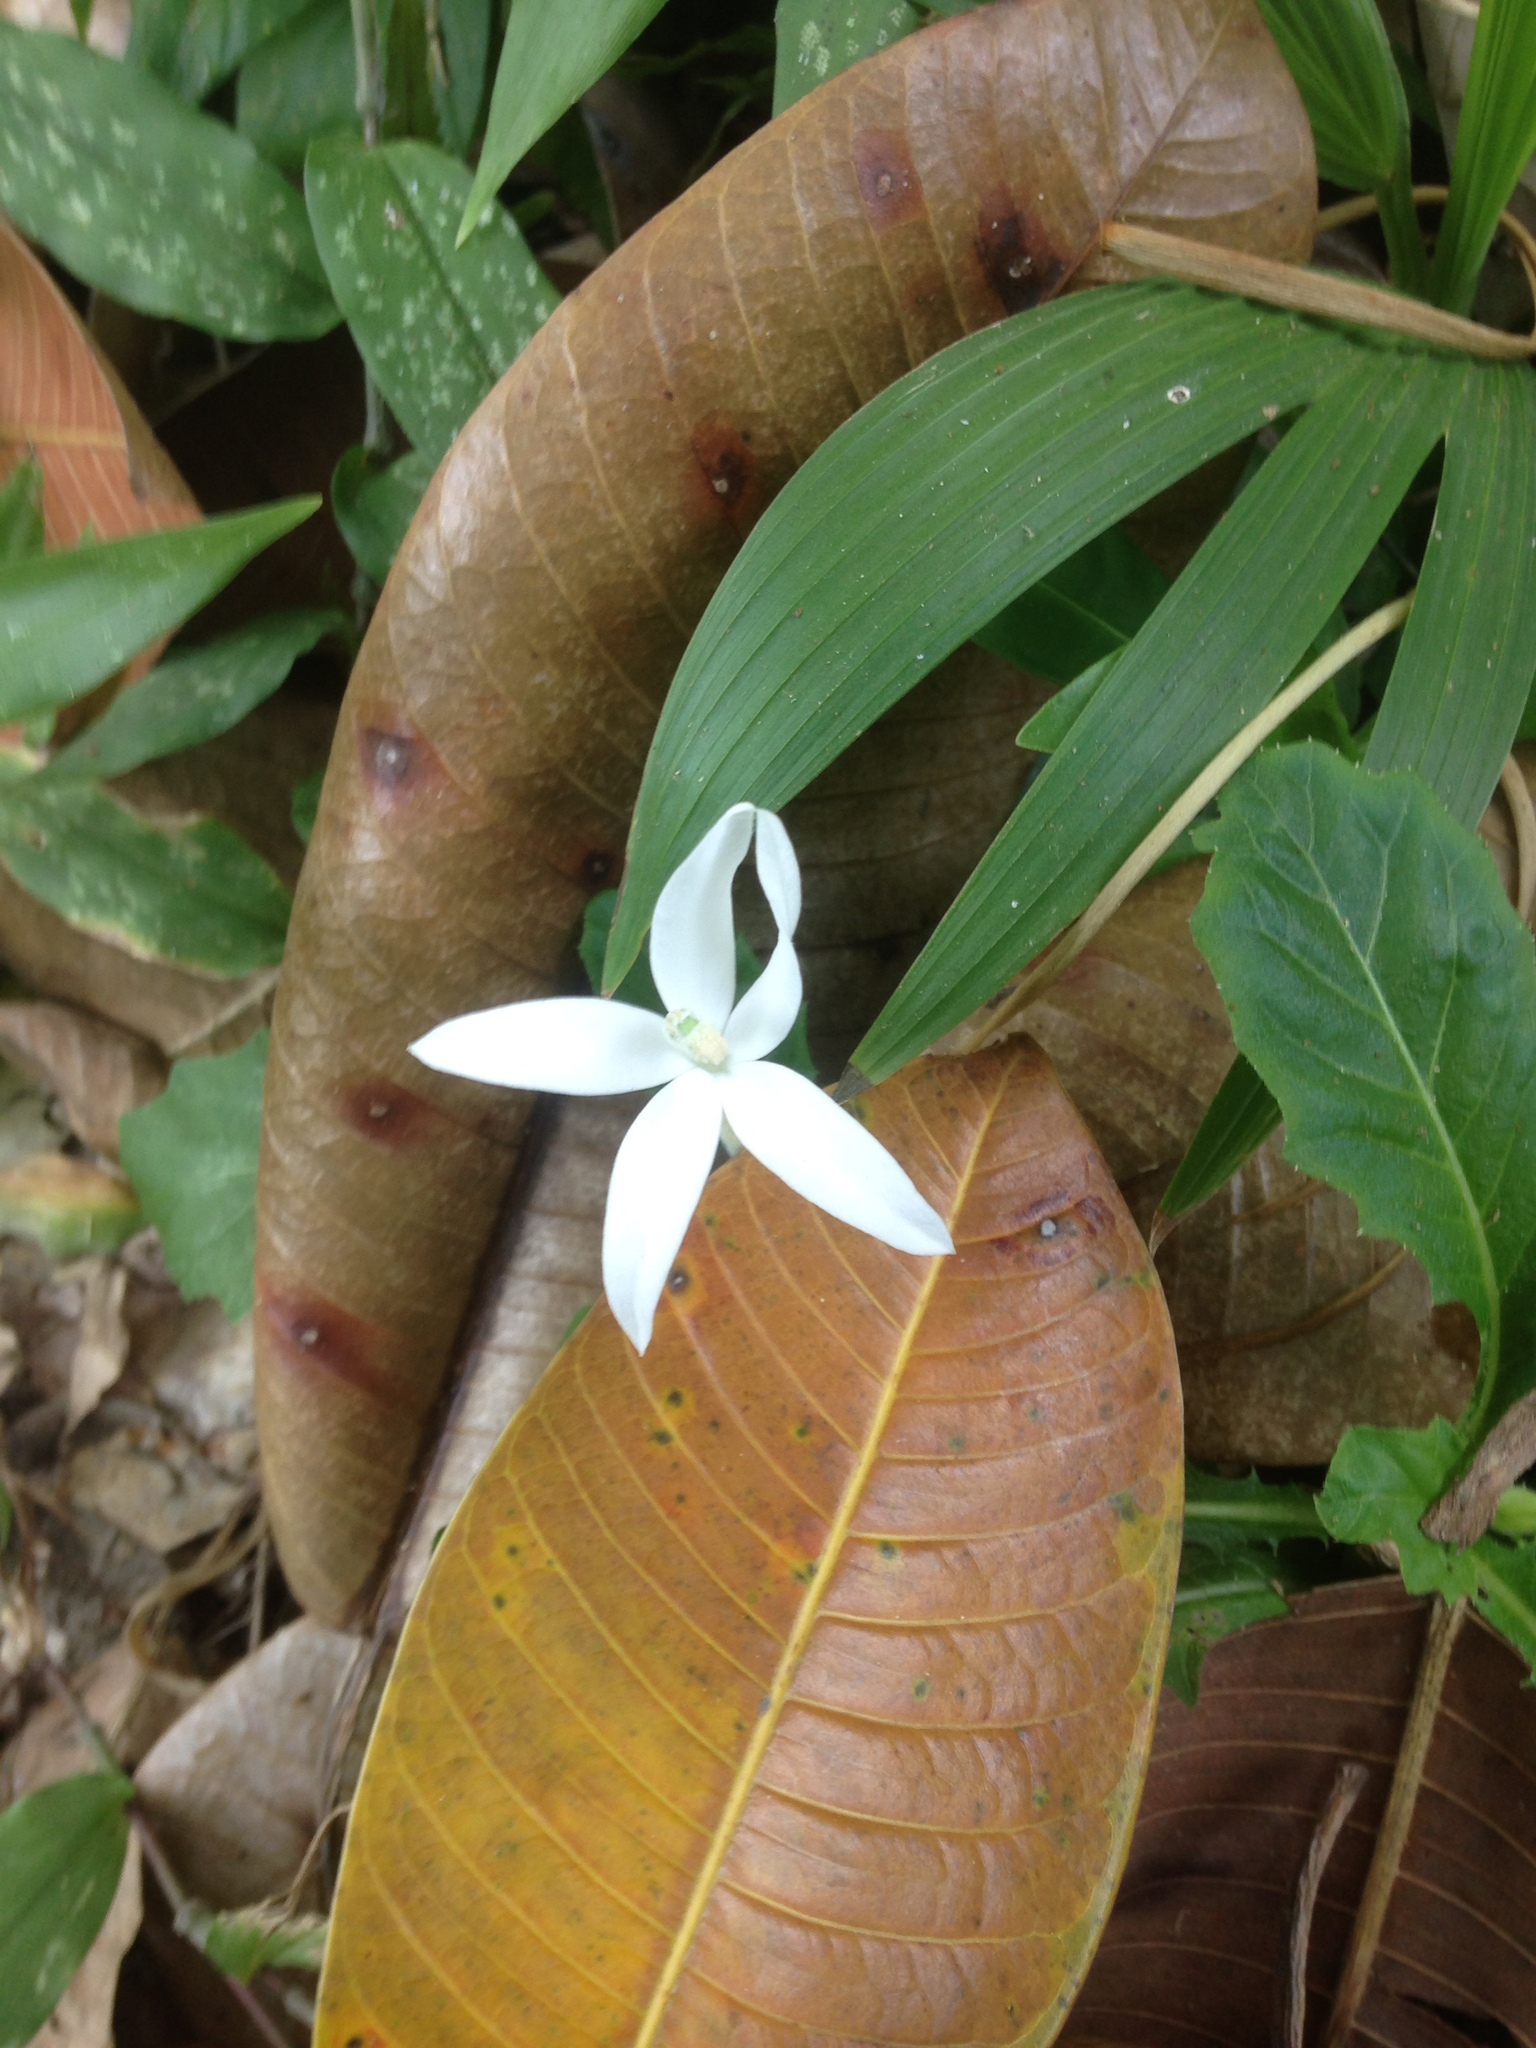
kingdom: Plantae
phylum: Tracheophyta
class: Magnoliopsida
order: Asterales
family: Campanulaceae
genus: Hippobroma
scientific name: Hippobroma longiflora
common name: Madamfate
